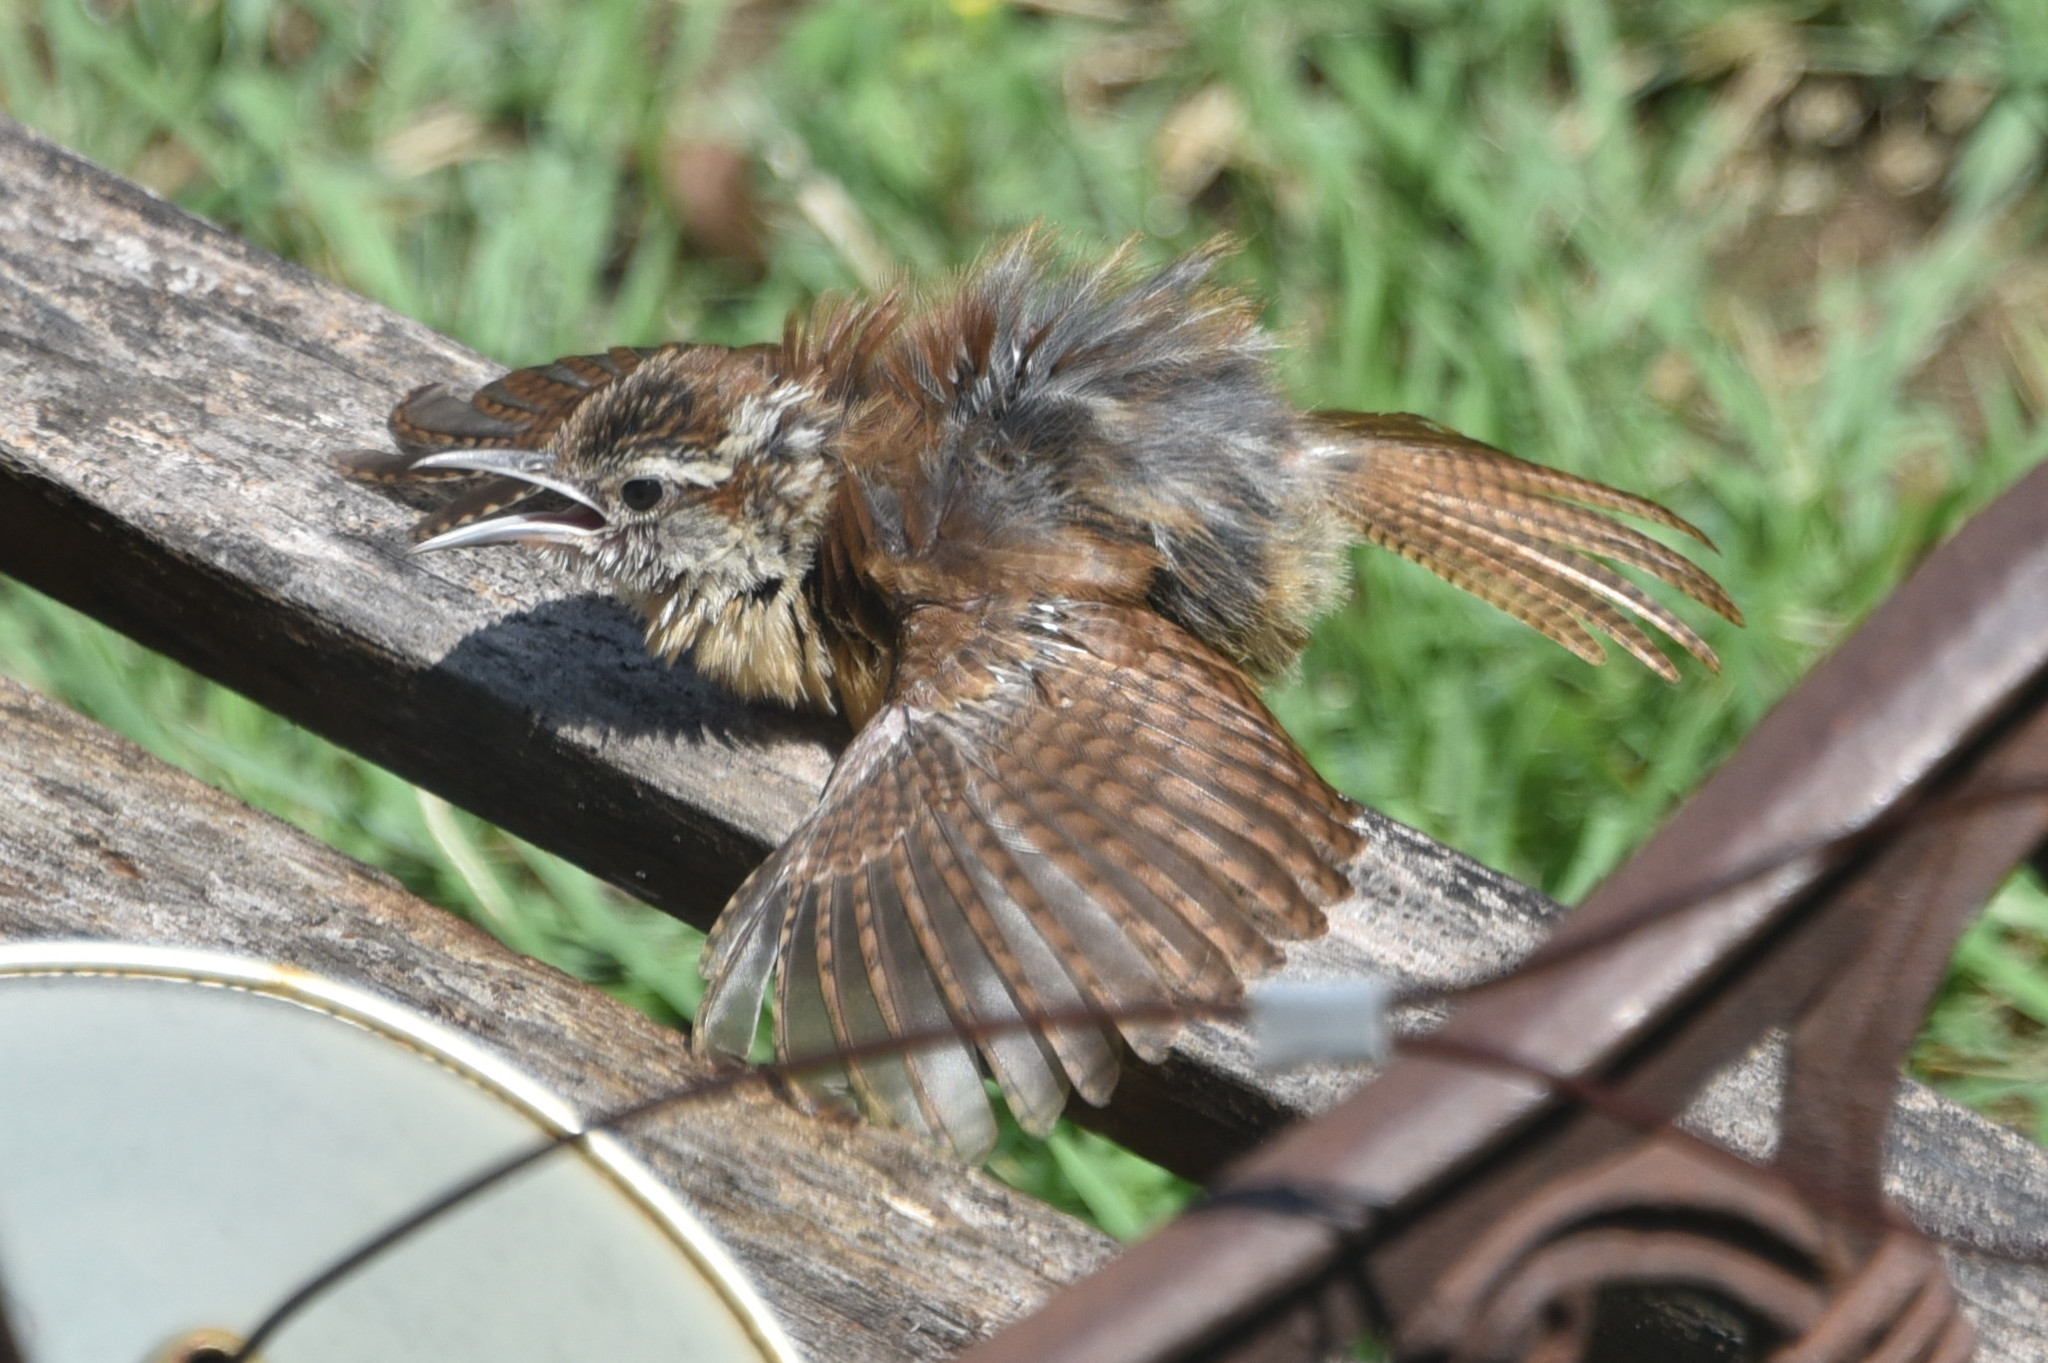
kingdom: Animalia
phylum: Chordata
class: Aves
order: Passeriformes
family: Troglodytidae
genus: Thryothorus
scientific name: Thryothorus ludovicianus
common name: Carolina wren
